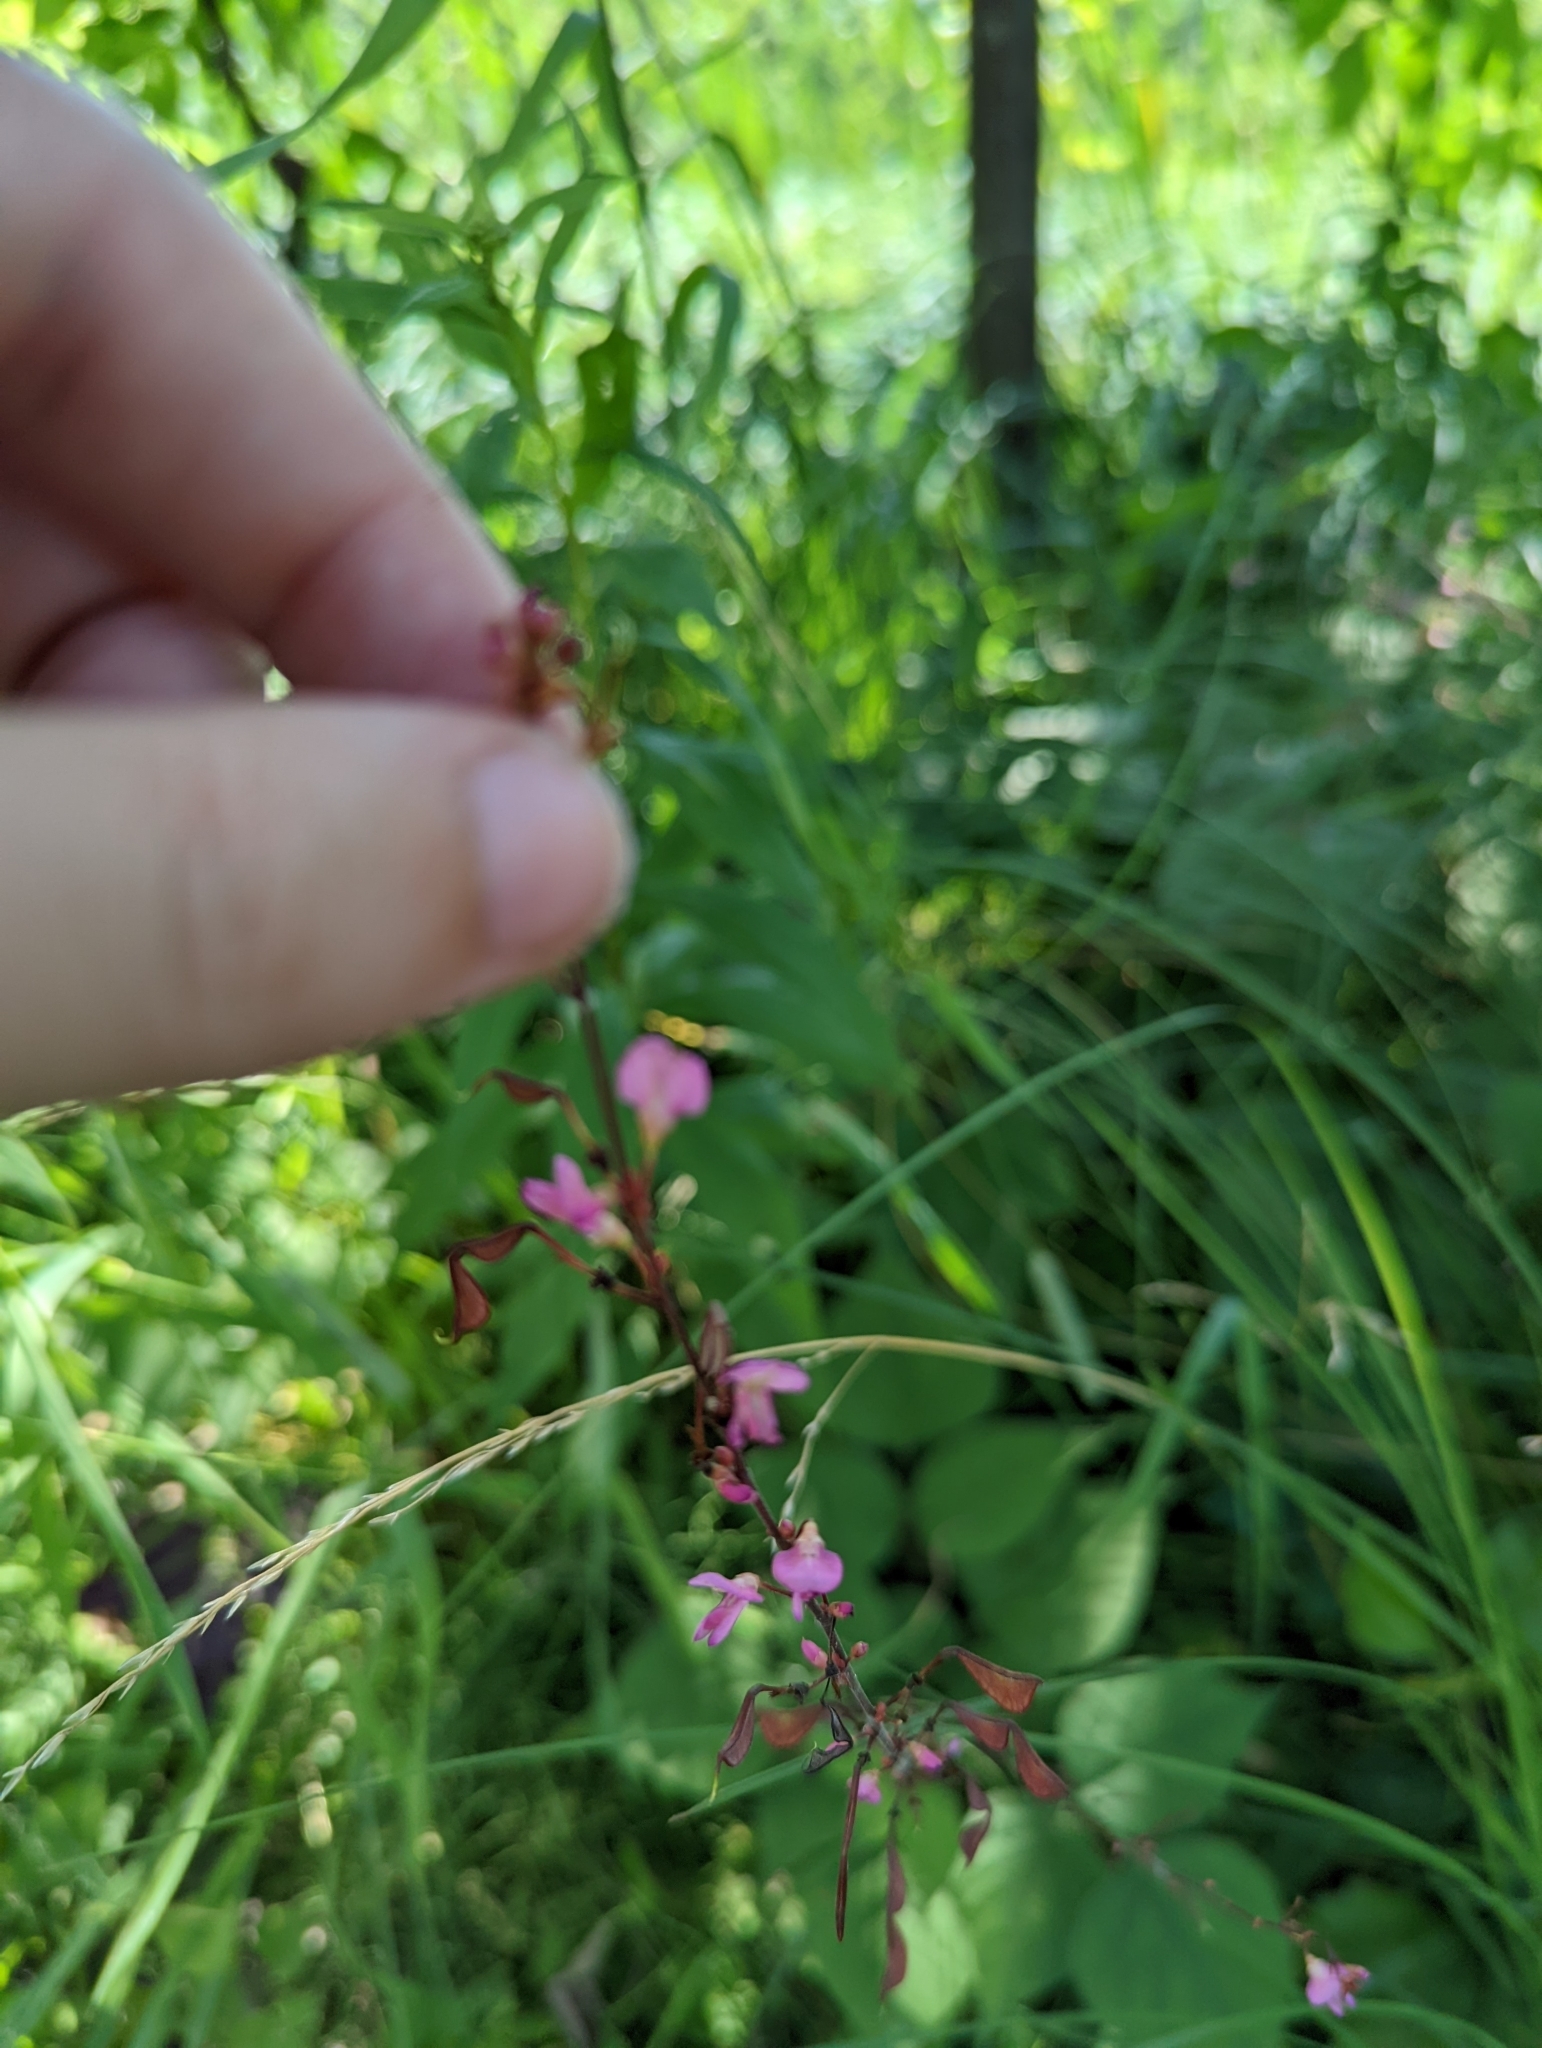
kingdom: Plantae
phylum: Tracheophyta
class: Magnoliopsida
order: Fabales
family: Fabaceae
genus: Hylodesmum
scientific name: Hylodesmum glutinosum
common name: Clustered-leaved tick-trefoil
